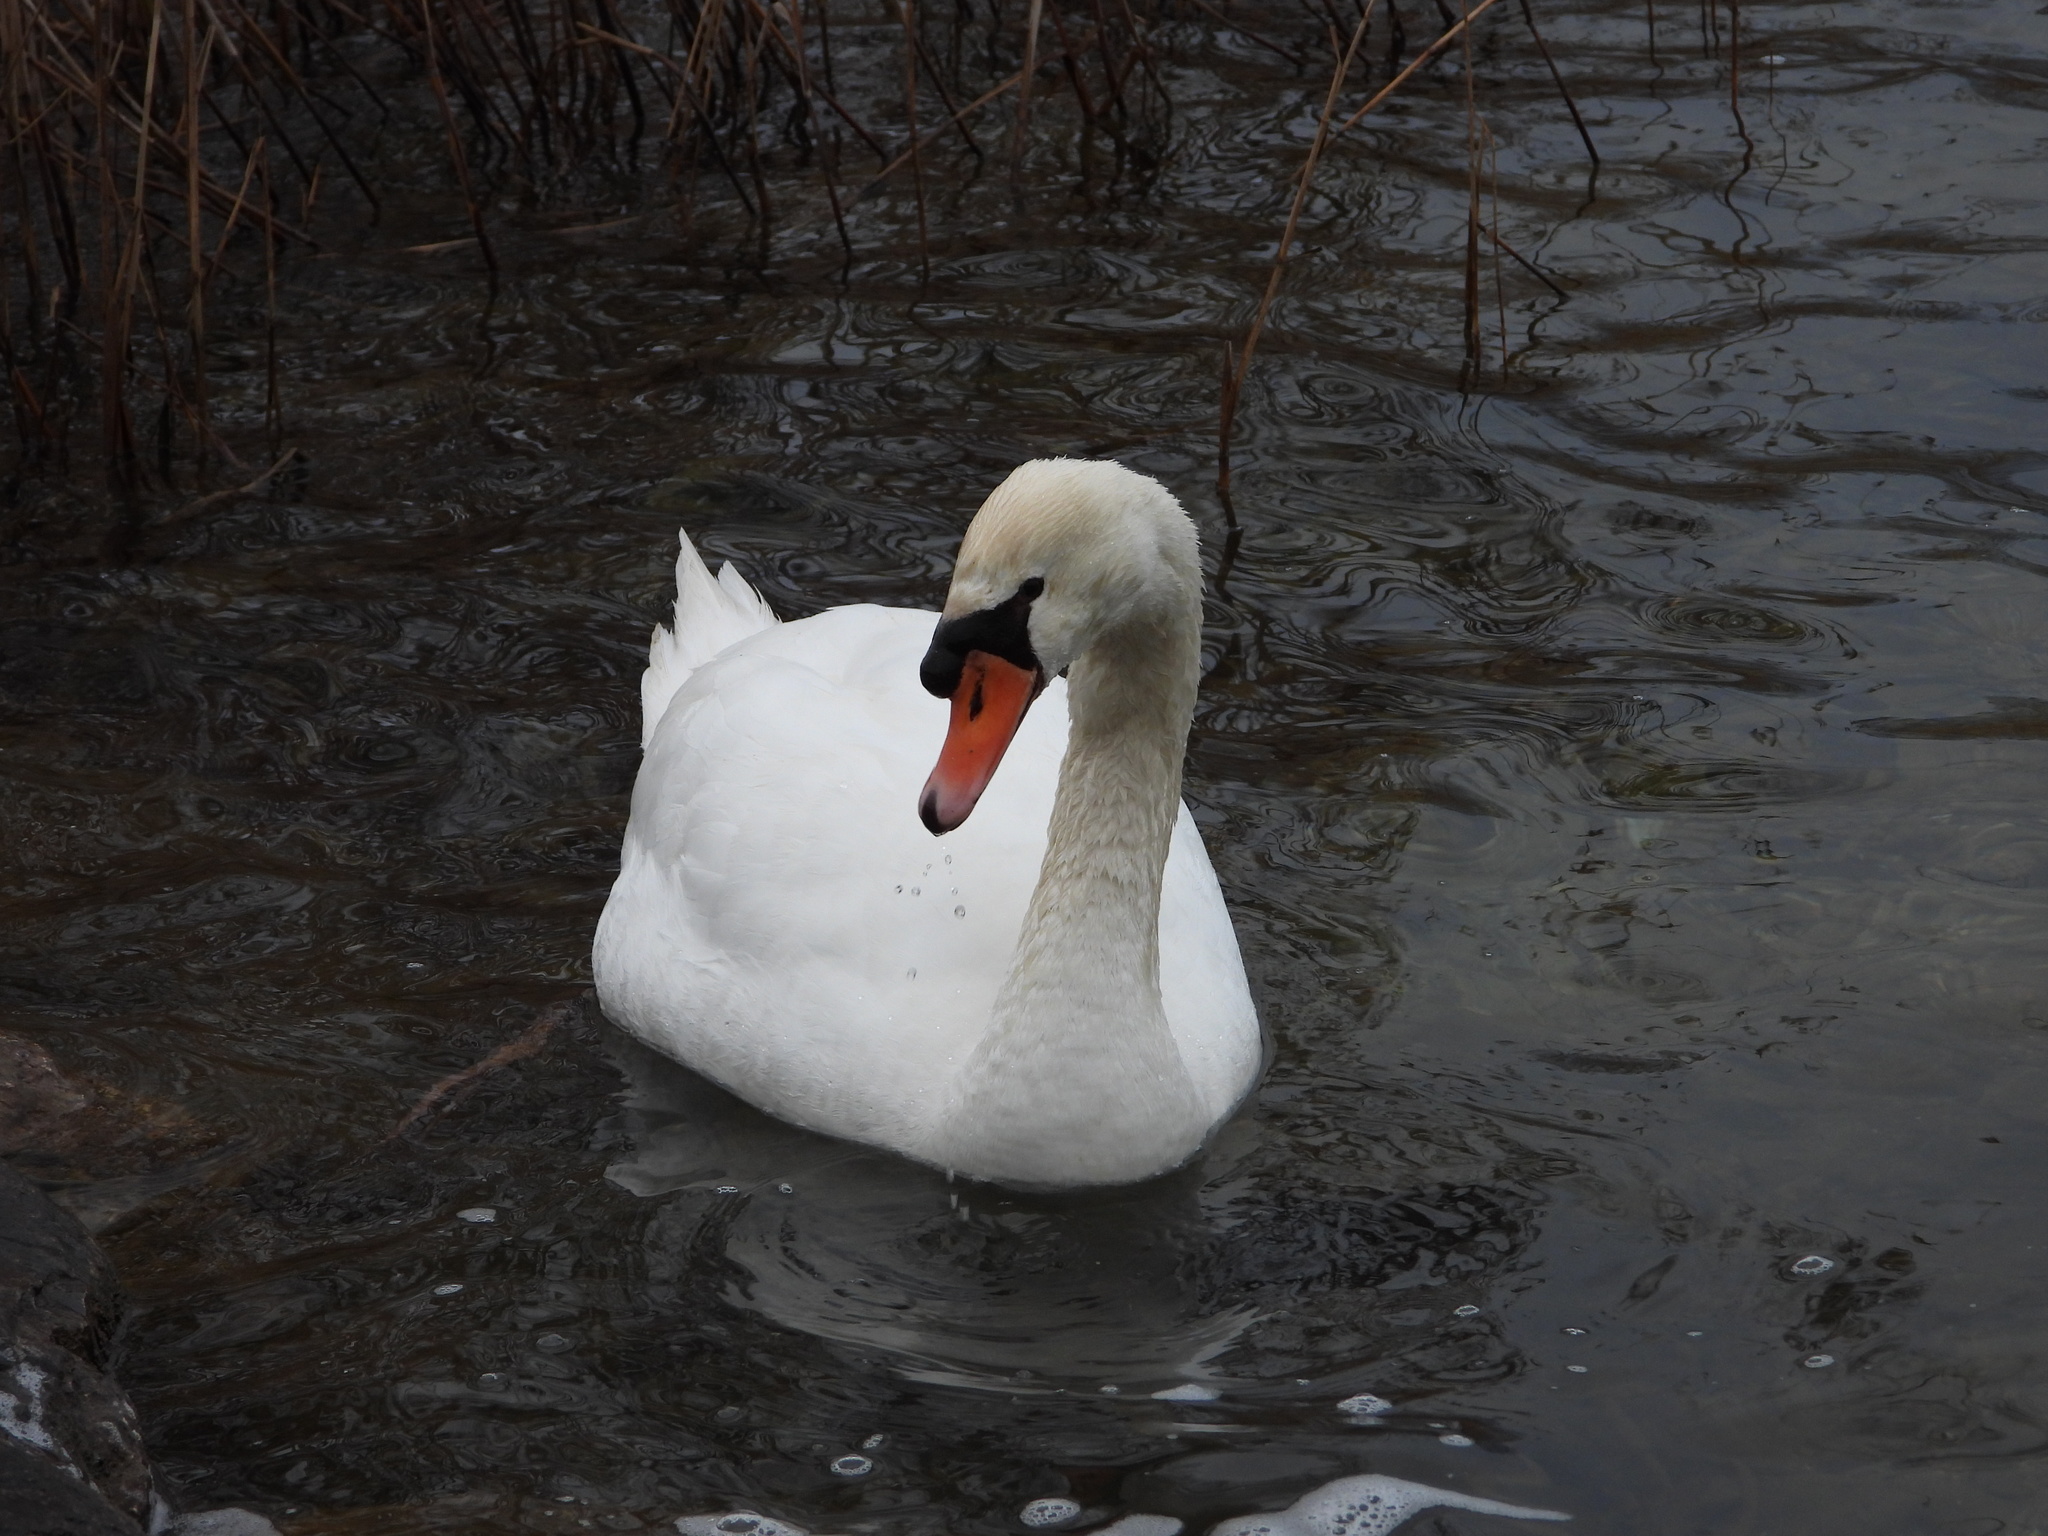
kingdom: Animalia
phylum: Chordata
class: Aves
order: Anseriformes
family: Anatidae
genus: Cygnus
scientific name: Cygnus olor
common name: Mute swan
